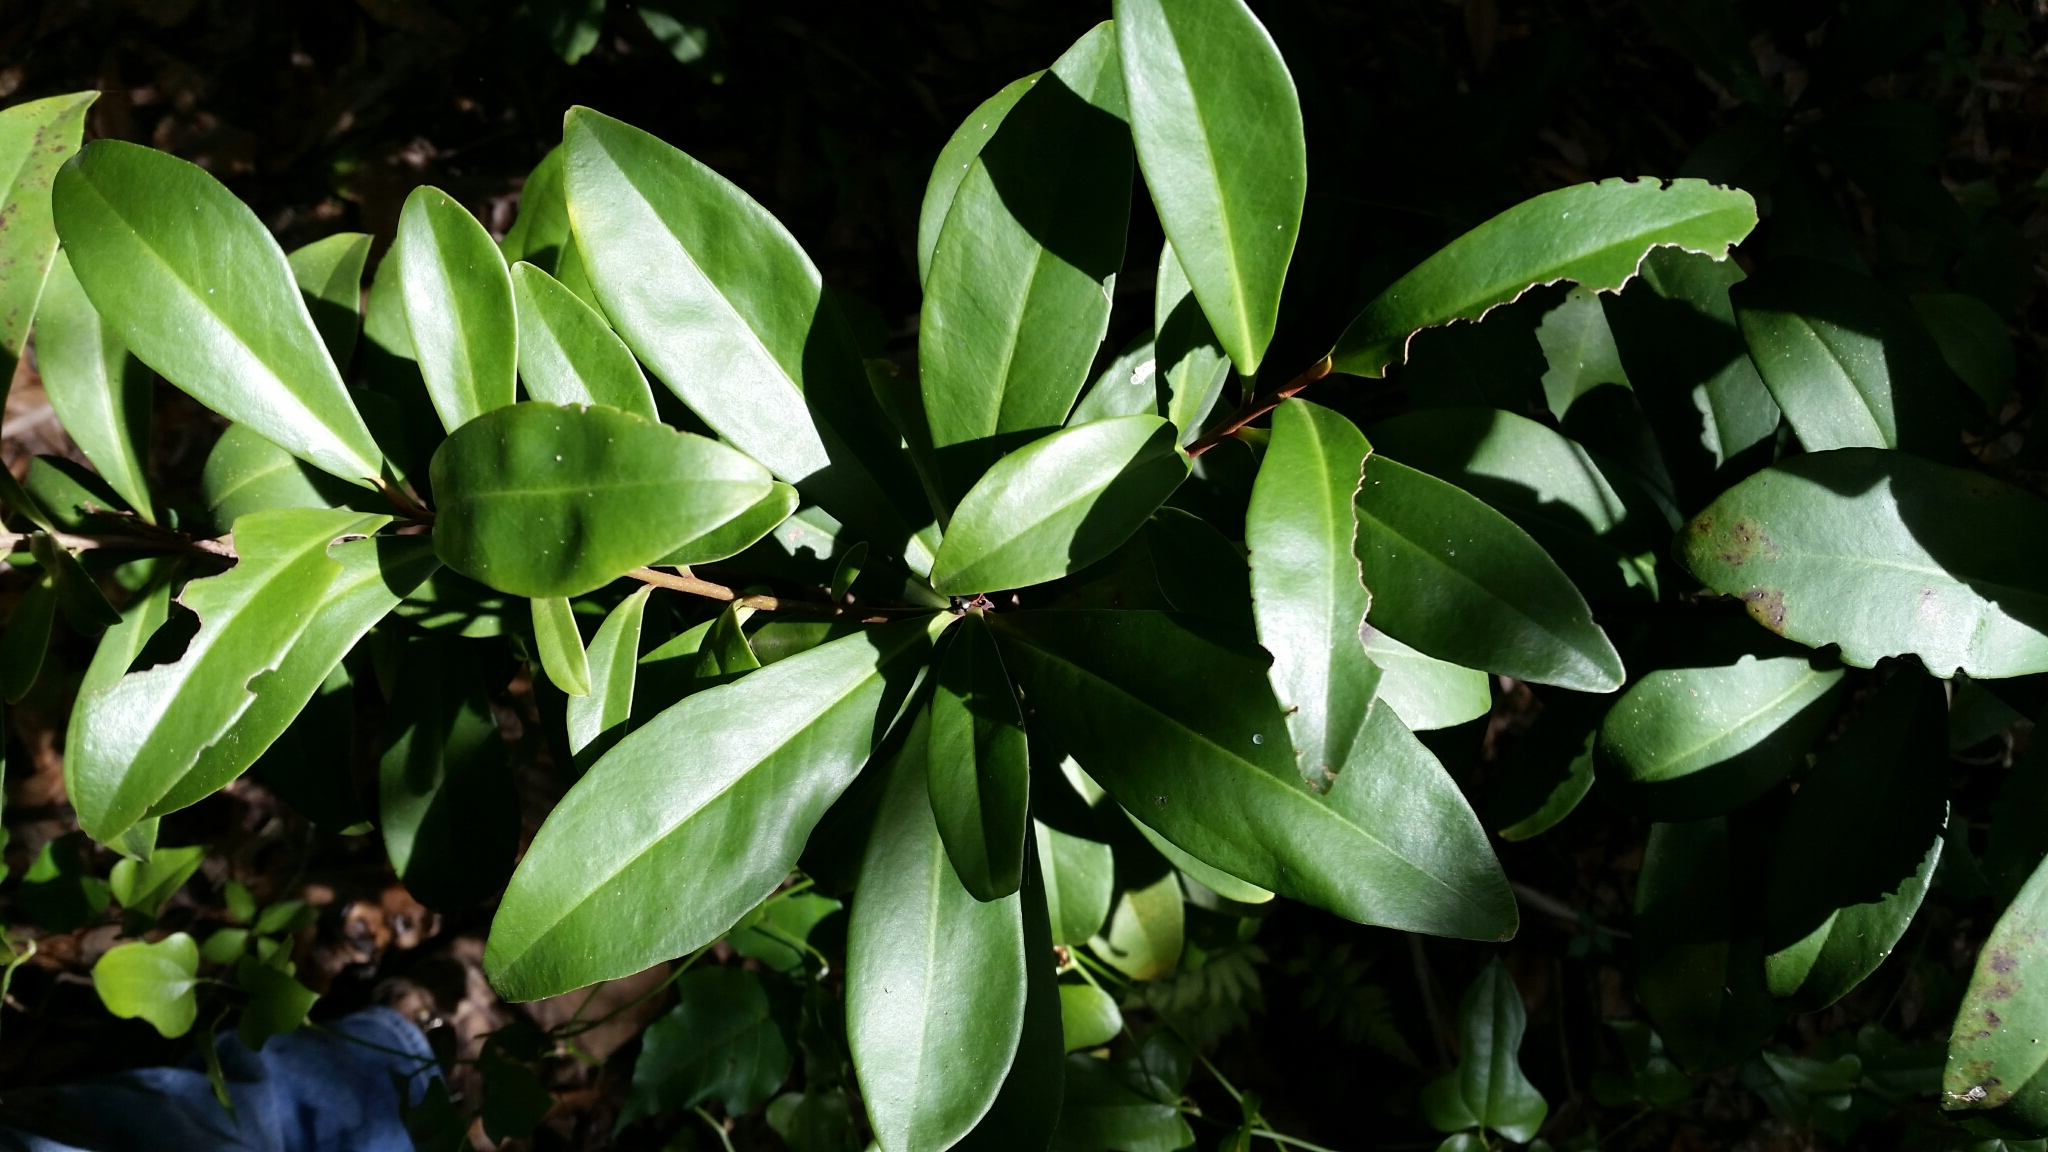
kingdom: Plantae
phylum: Tracheophyta
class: Magnoliopsida
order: Ericales
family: Primulaceae
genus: Ardisia
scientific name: Ardisia escallonioides
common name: Island marlberry
